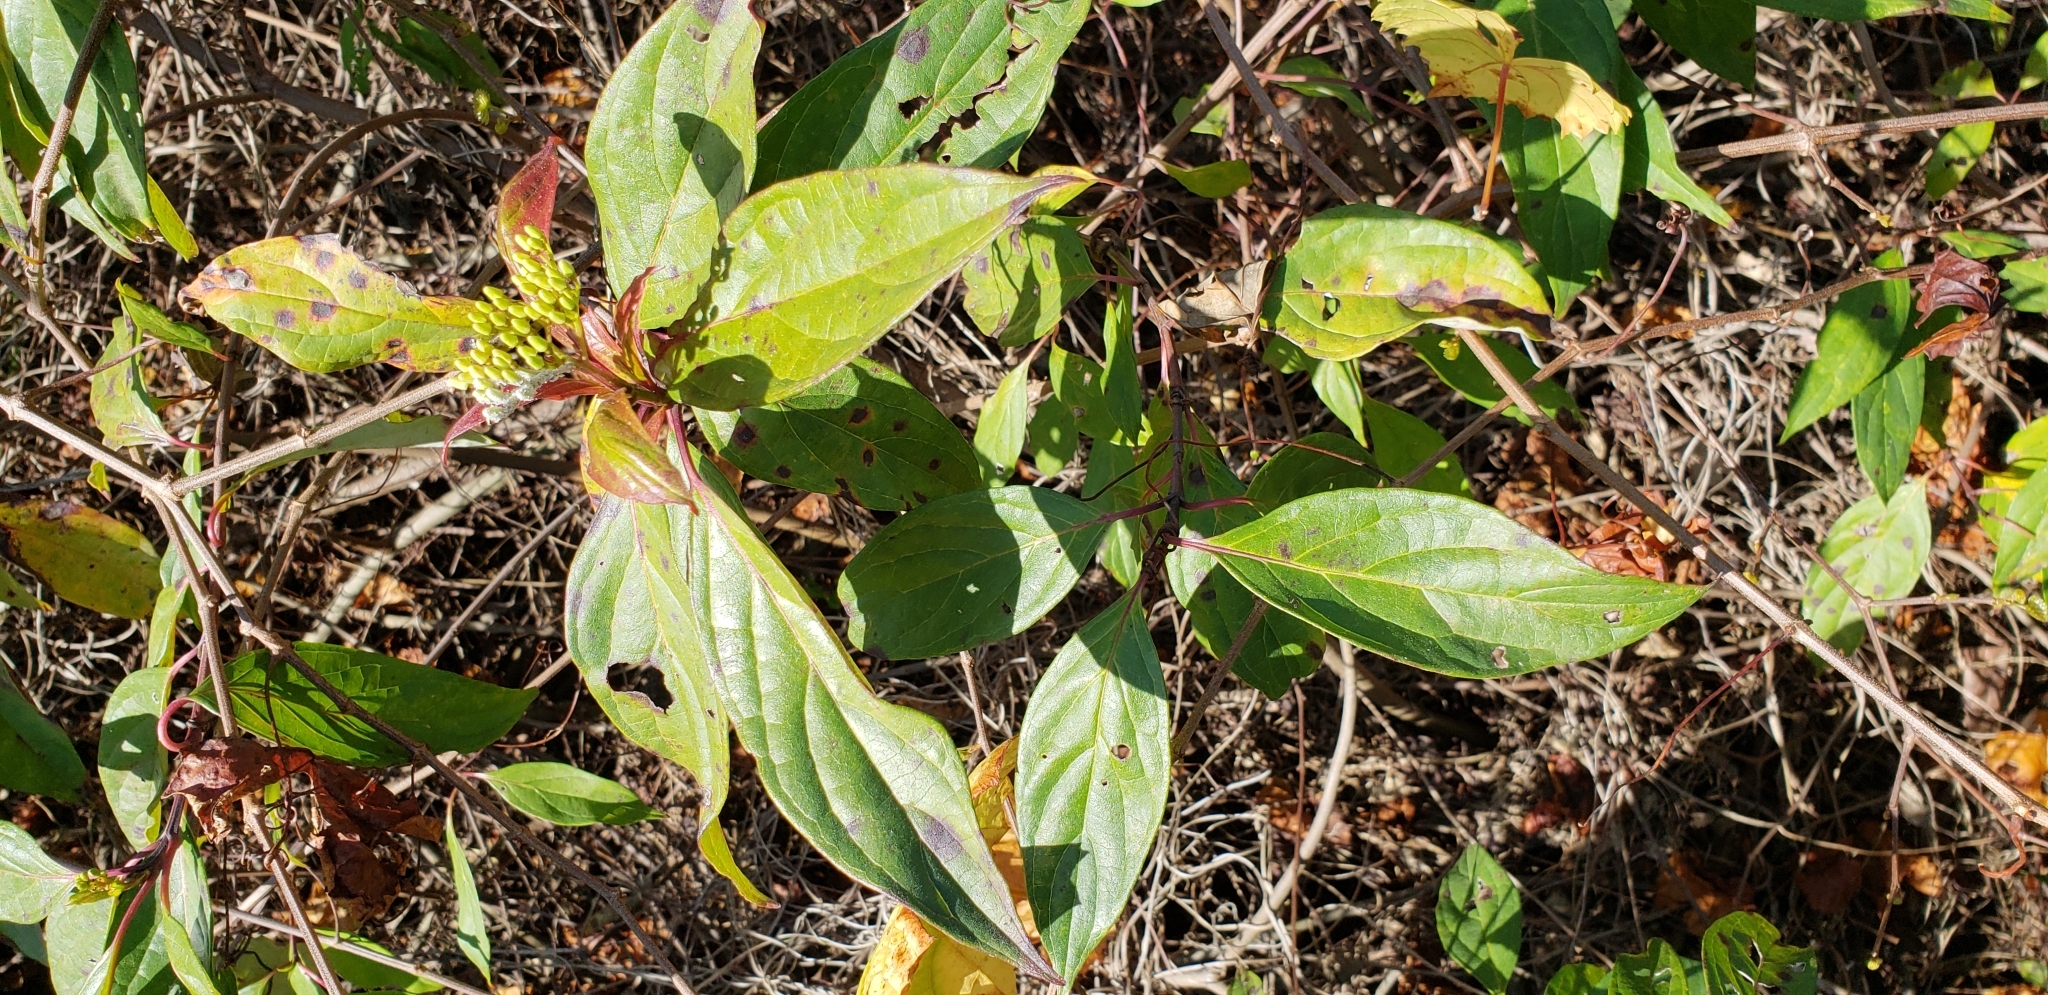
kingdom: Plantae
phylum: Tracheophyta
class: Magnoliopsida
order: Cornales
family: Cornaceae
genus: Cornus
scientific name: Cornus foemina
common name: Swamp dogwood
